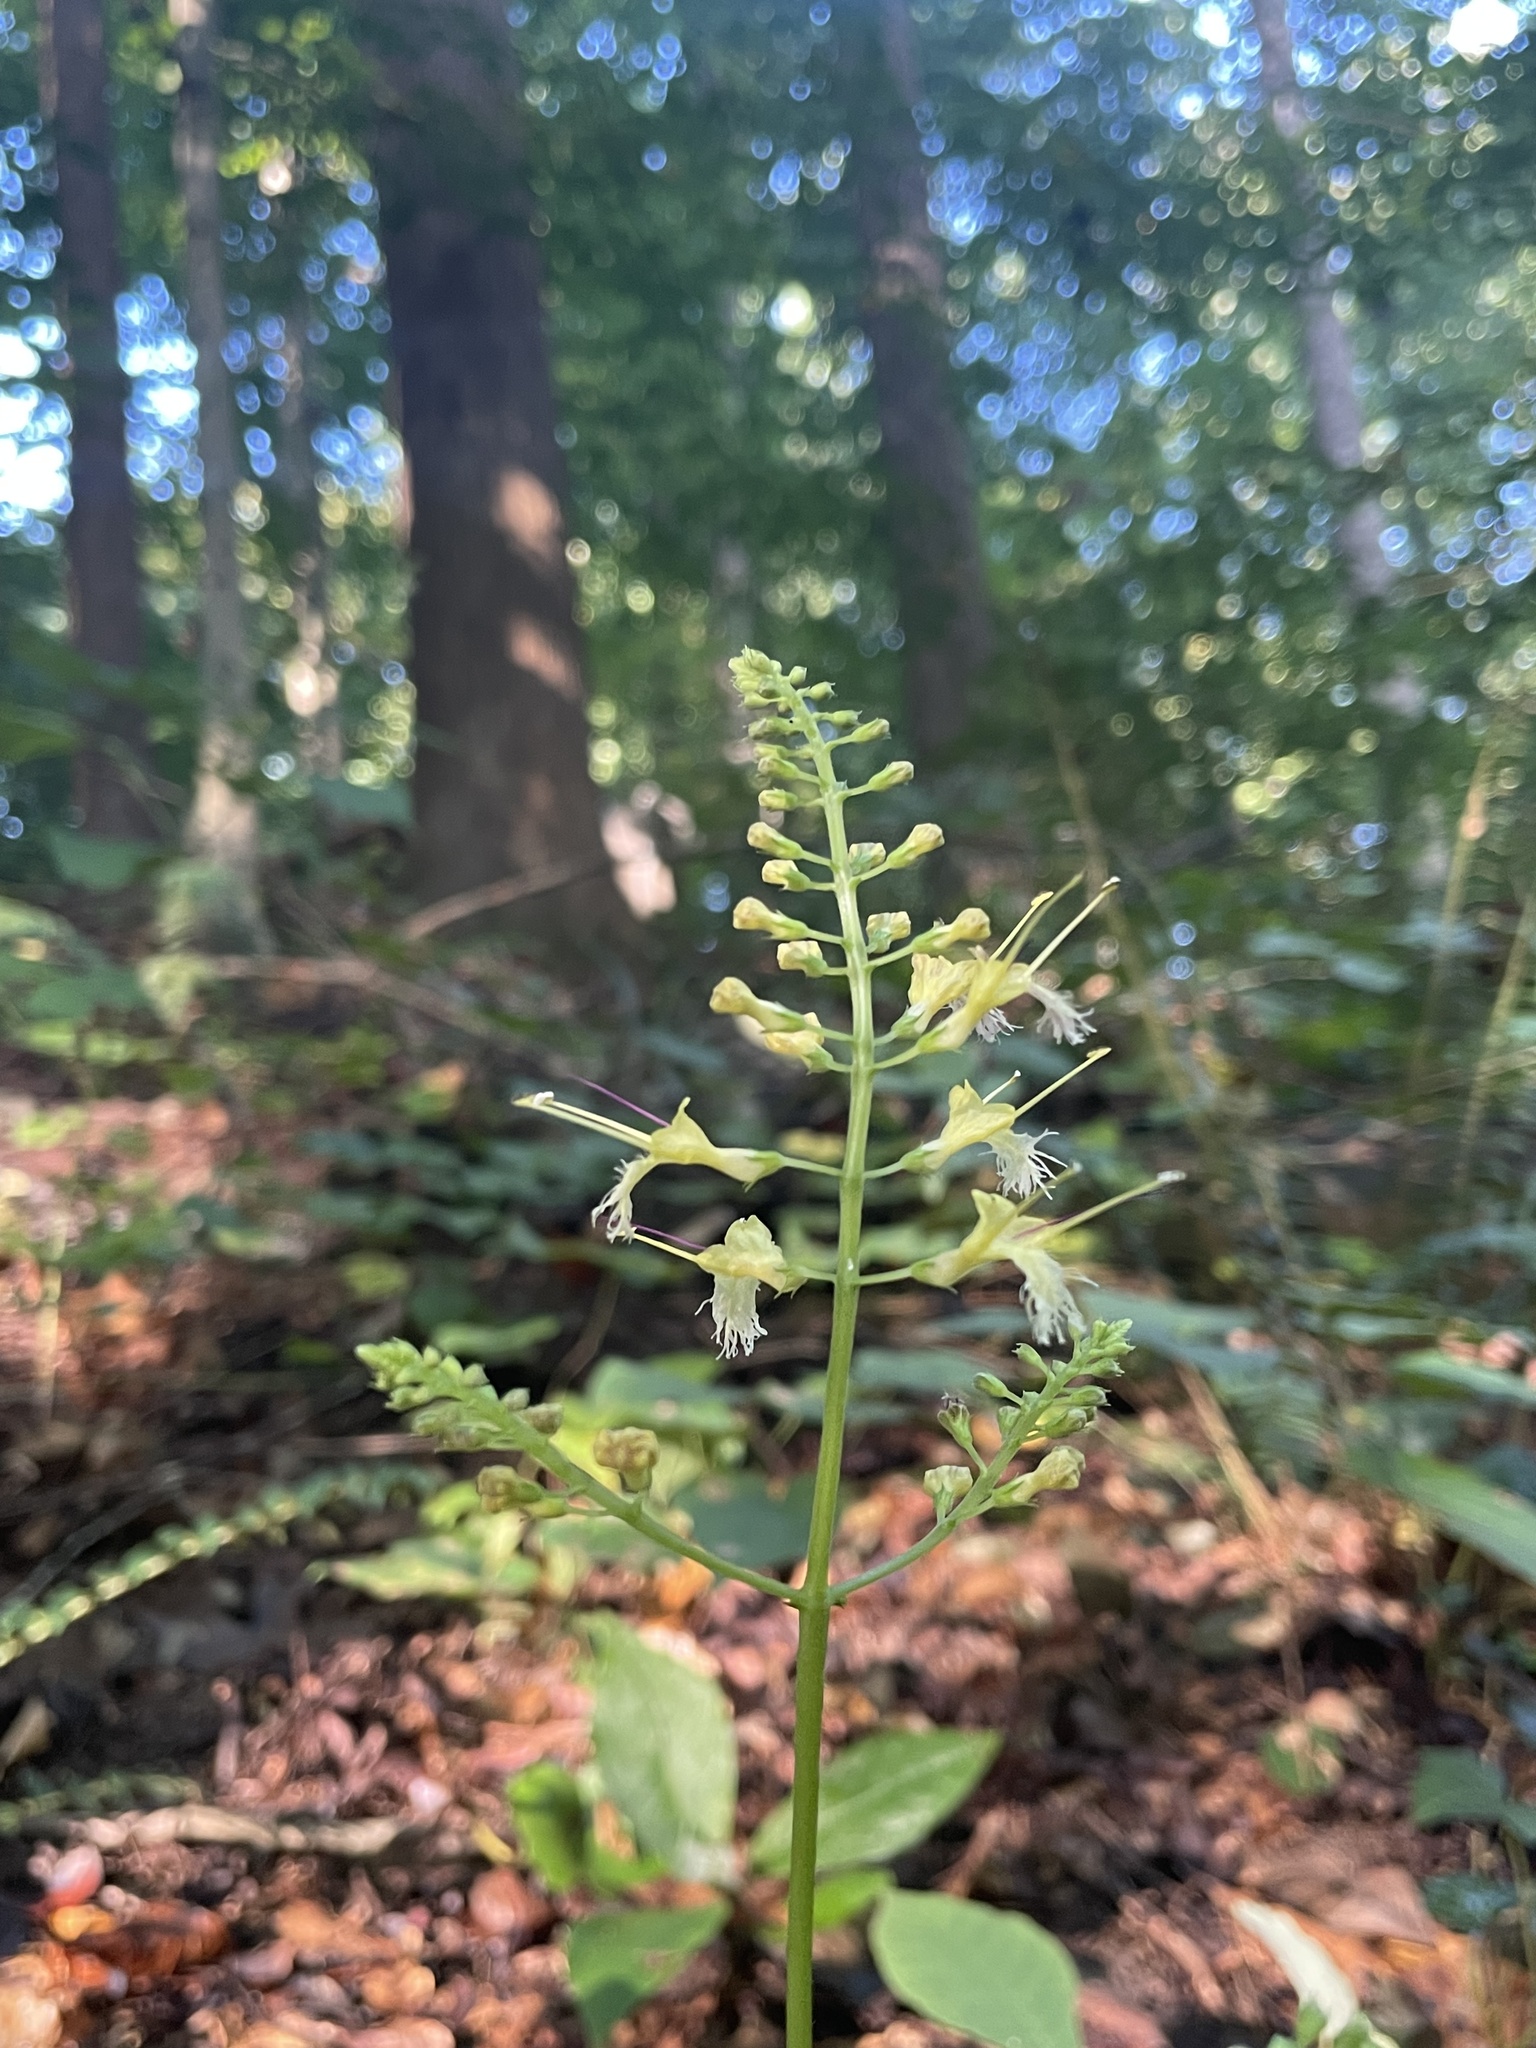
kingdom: Plantae
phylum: Tracheophyta
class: Magnoliopsida
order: Lamiales
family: Lamiaceae
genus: Collinsonia
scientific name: Collinsonia canadensis
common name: Northern horsebalm
